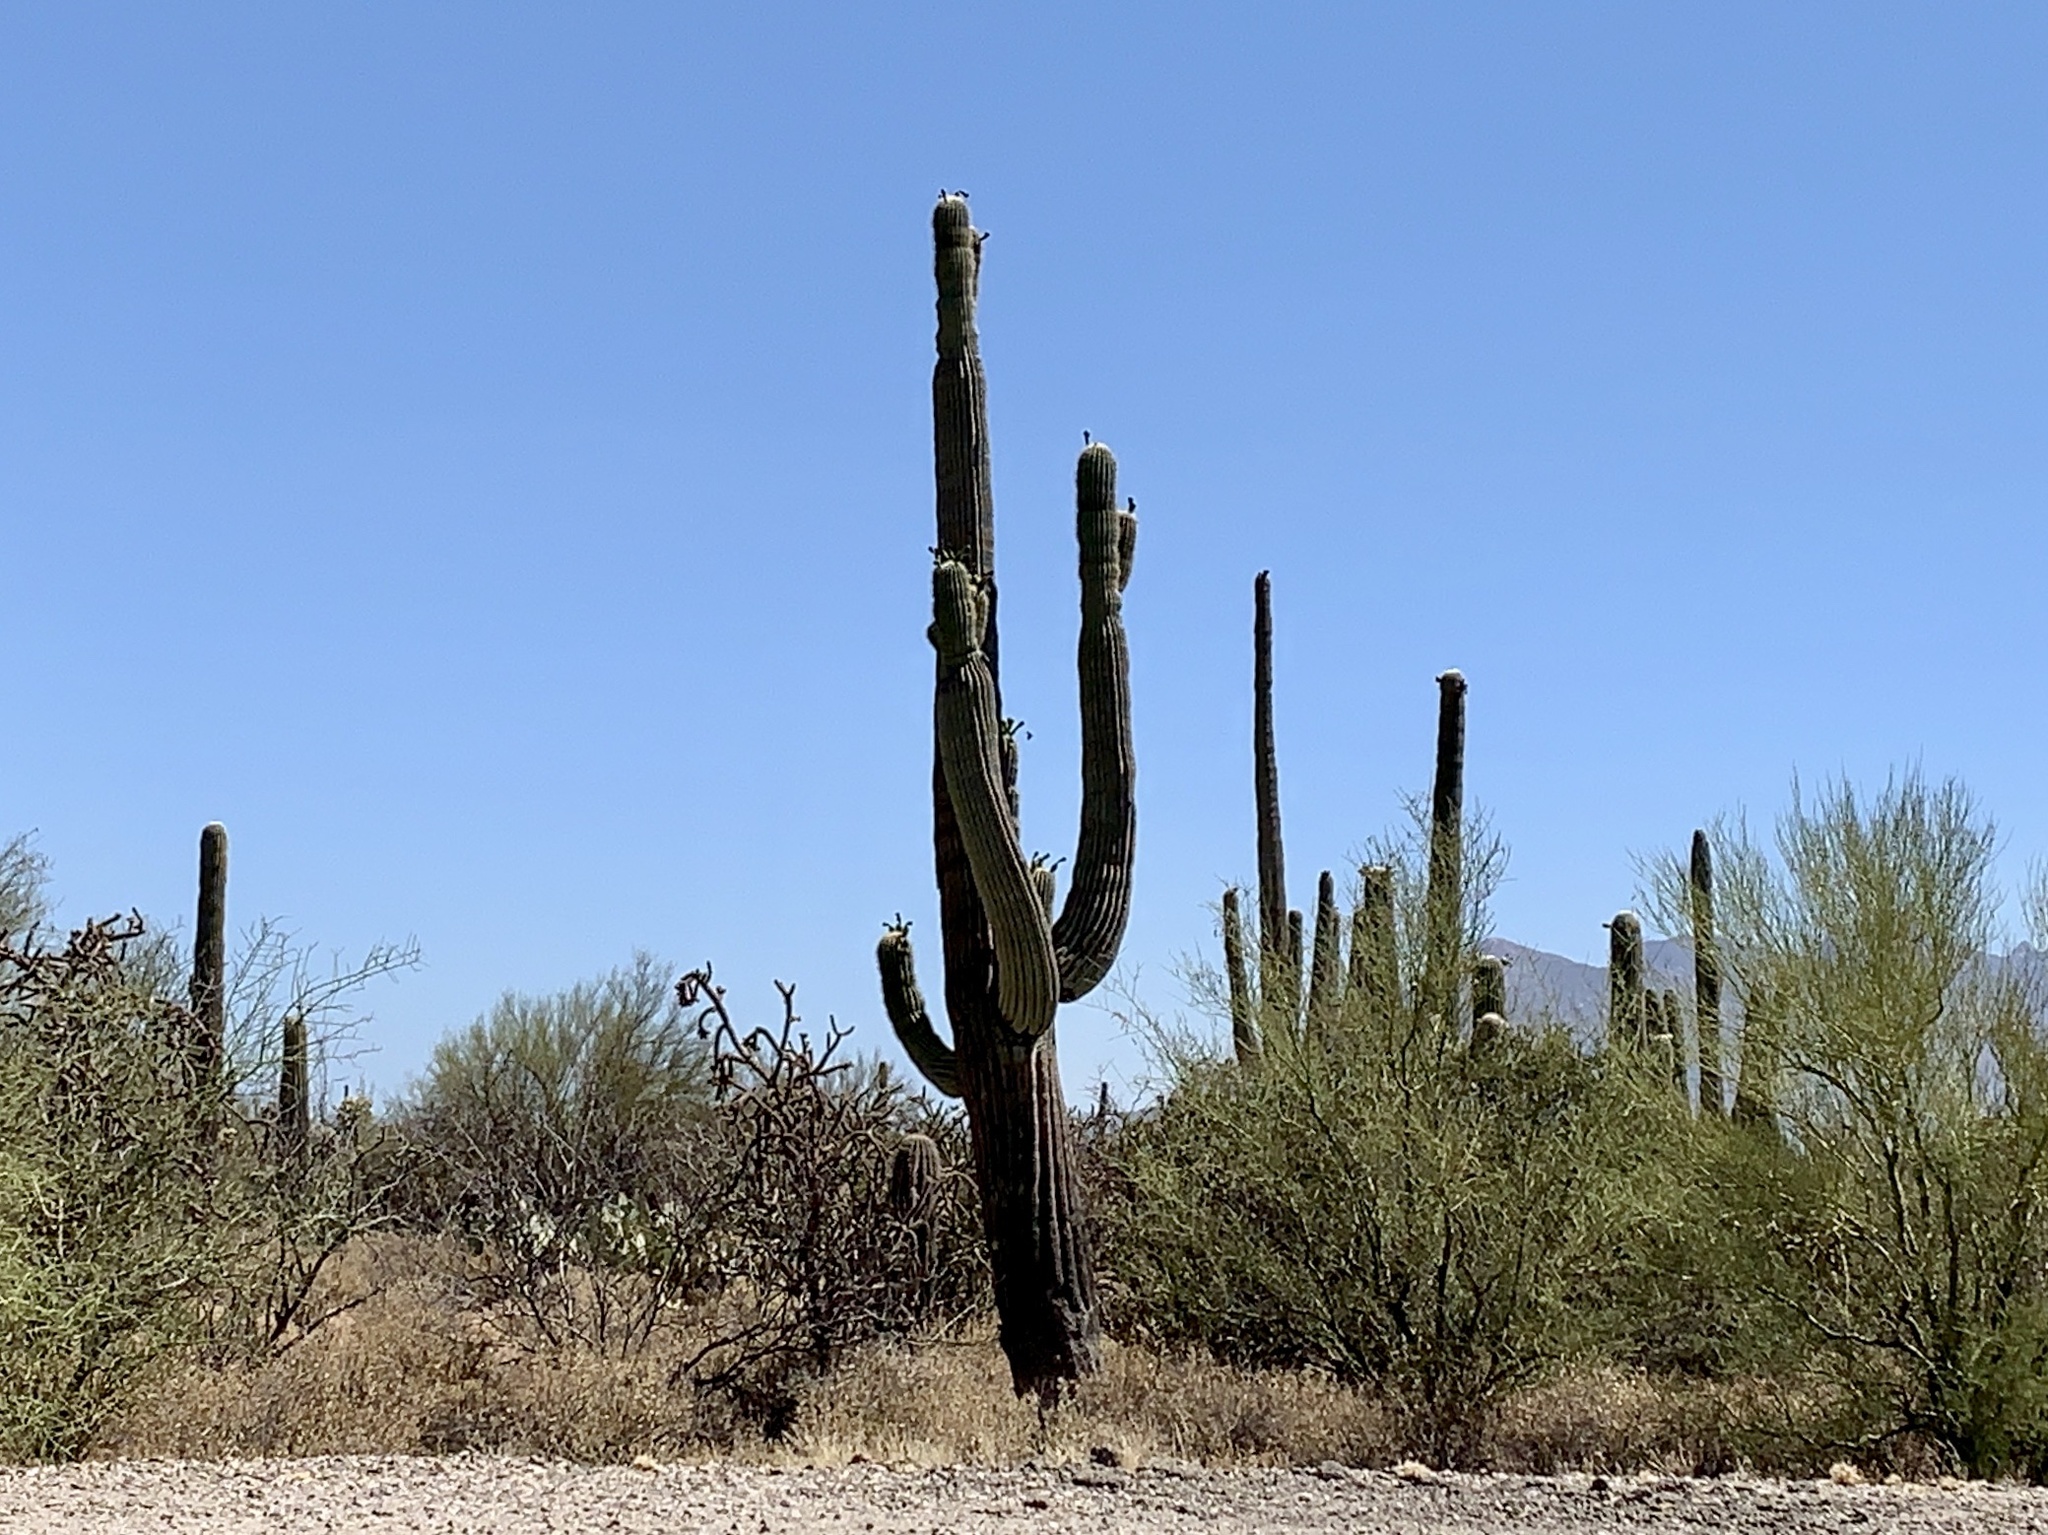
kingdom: Plantae
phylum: Tracheophyta
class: Magnoliopsida
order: Caryophyllales
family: Cactaceae
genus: Carnegiea
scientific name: Carnegiea gigantea
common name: Saguaro
